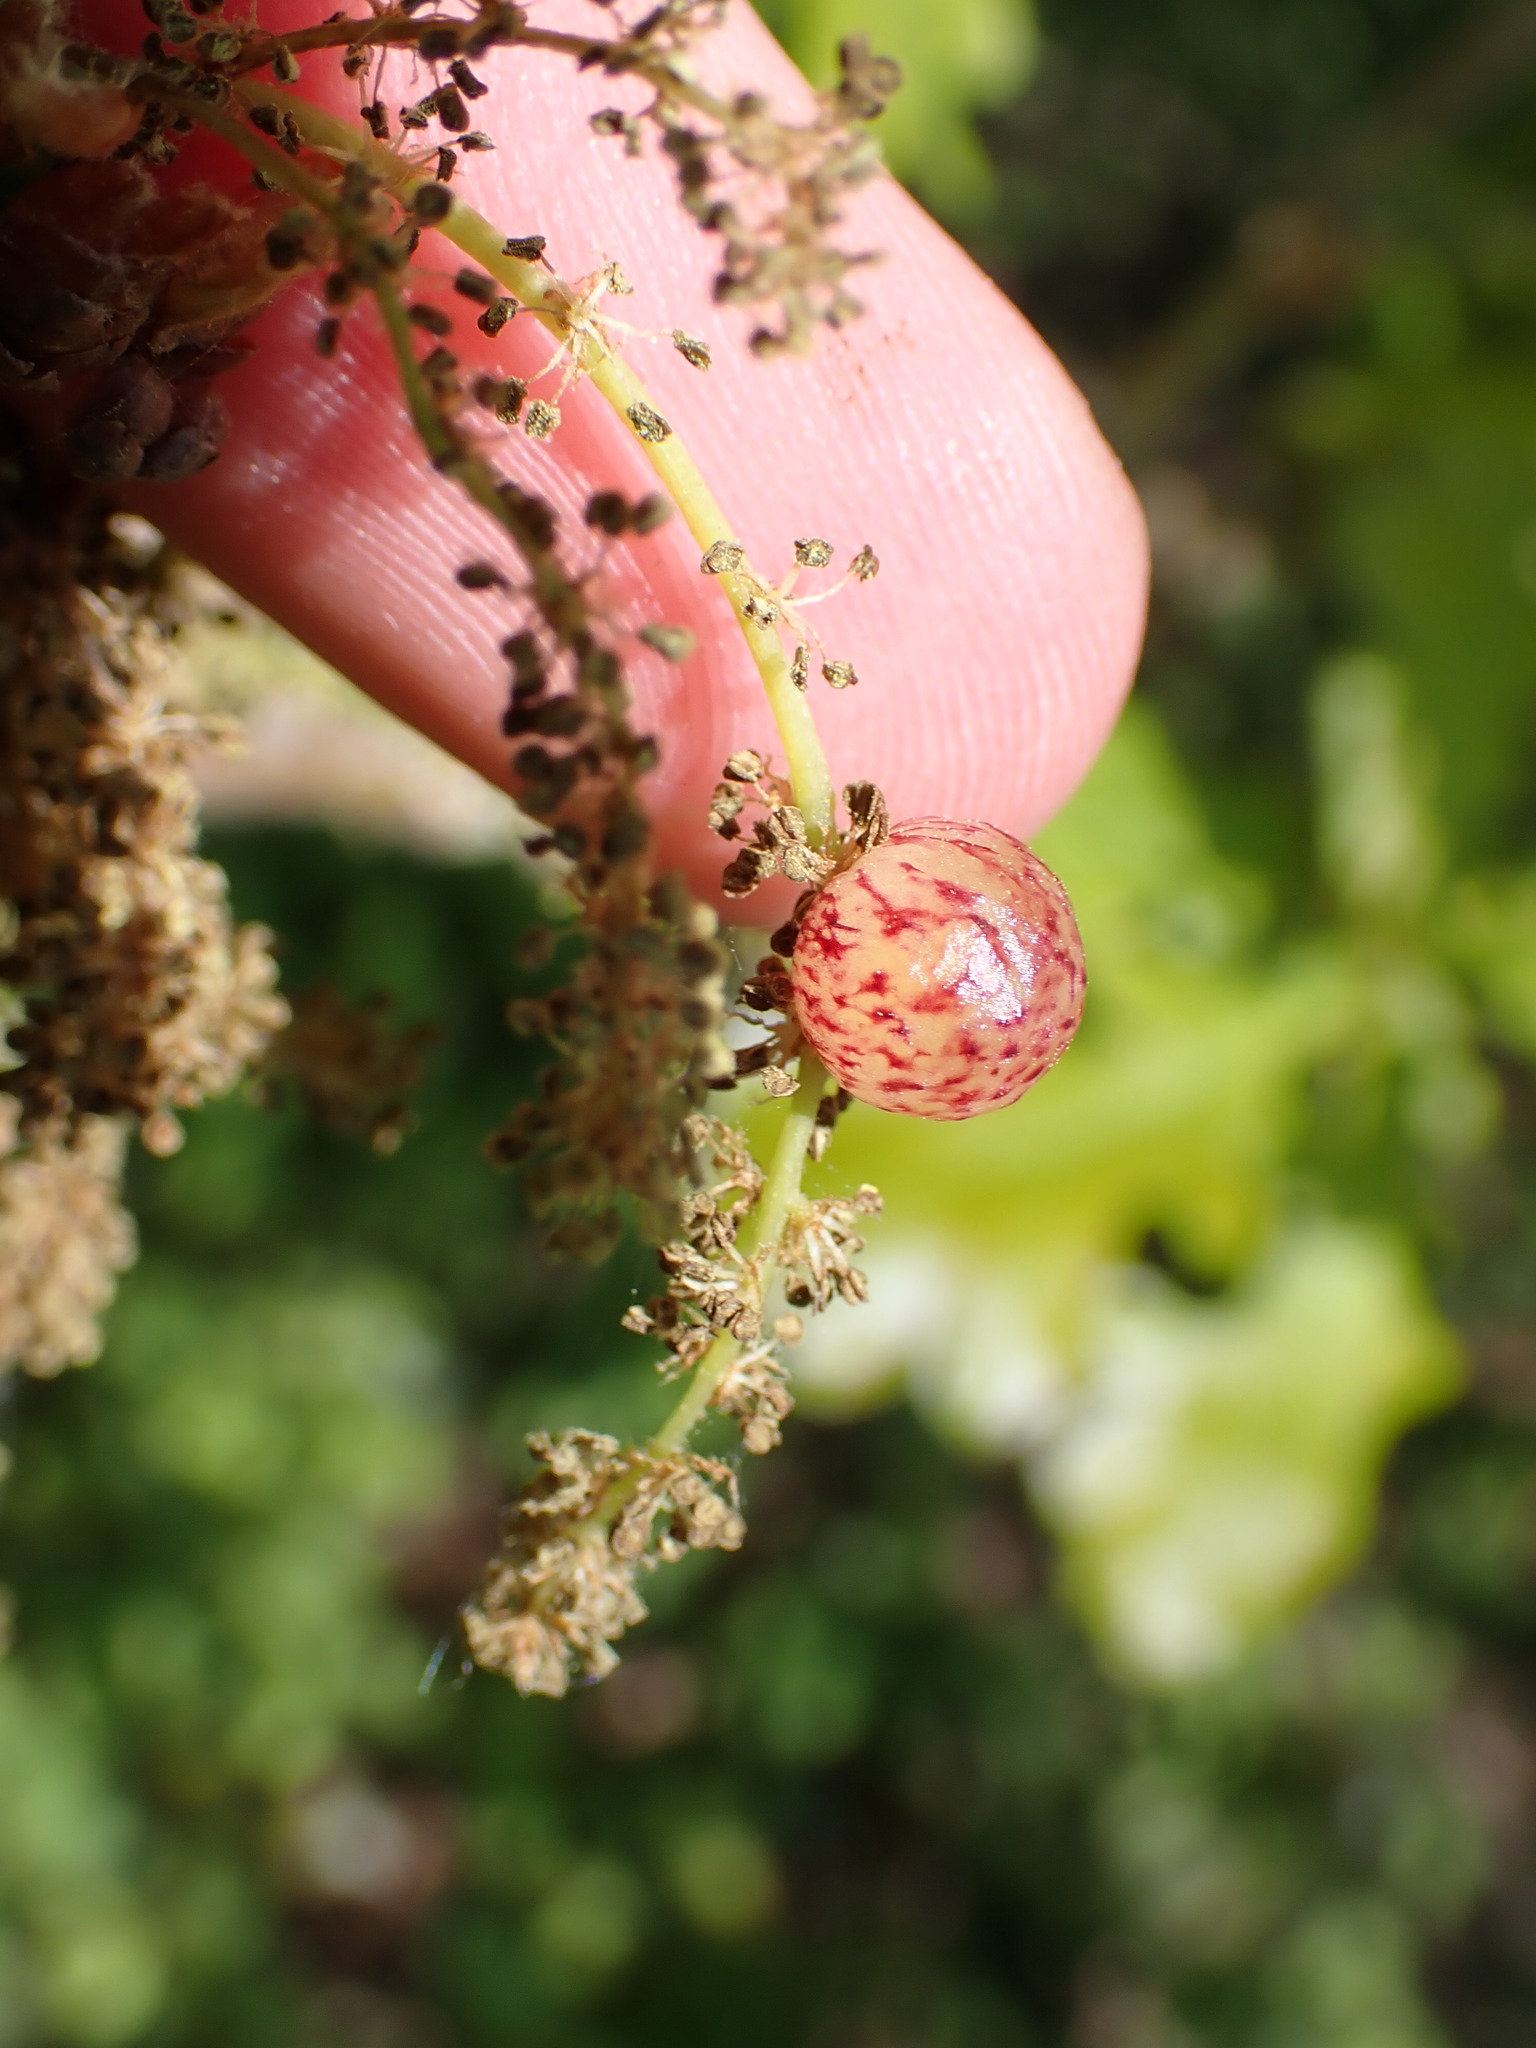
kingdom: Animalia
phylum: Arthropoda
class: Insecta
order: Hymenoptera
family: Cynipidae
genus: Neuroterus
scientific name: Neuroterus quercusbaccarum
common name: Common spangle gall
